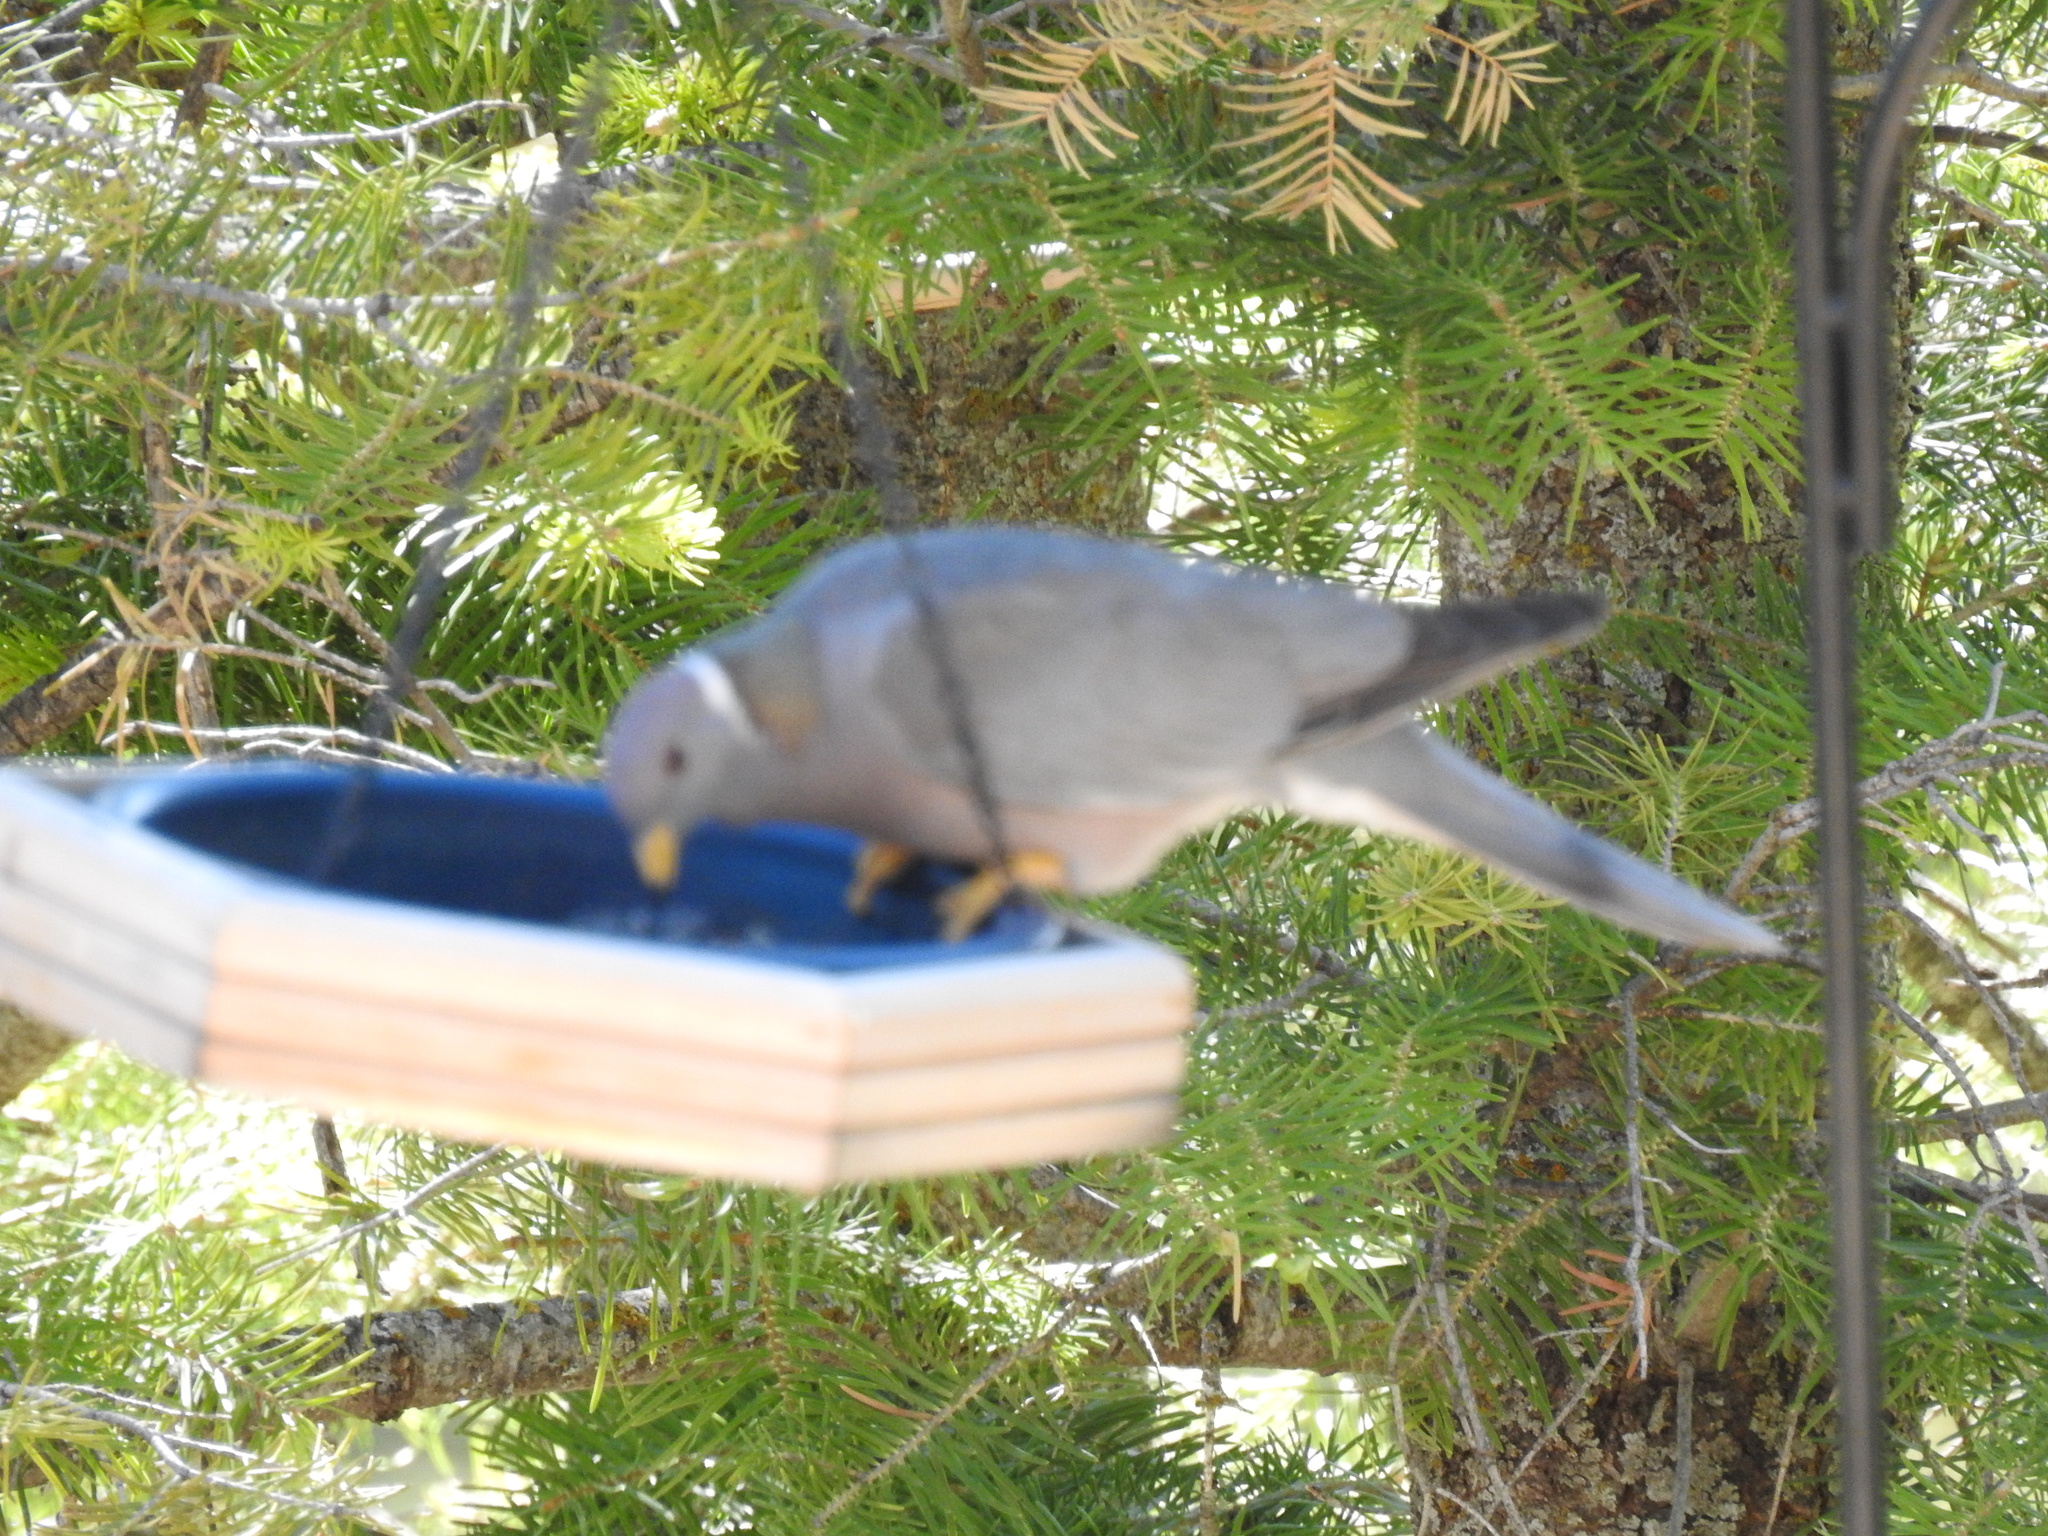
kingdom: Animalia
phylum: Chordata
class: Aves
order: Columbiformes
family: Columbidae
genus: Patagioenas
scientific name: Patagioenas fasciata
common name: Band-tailed pigeon
